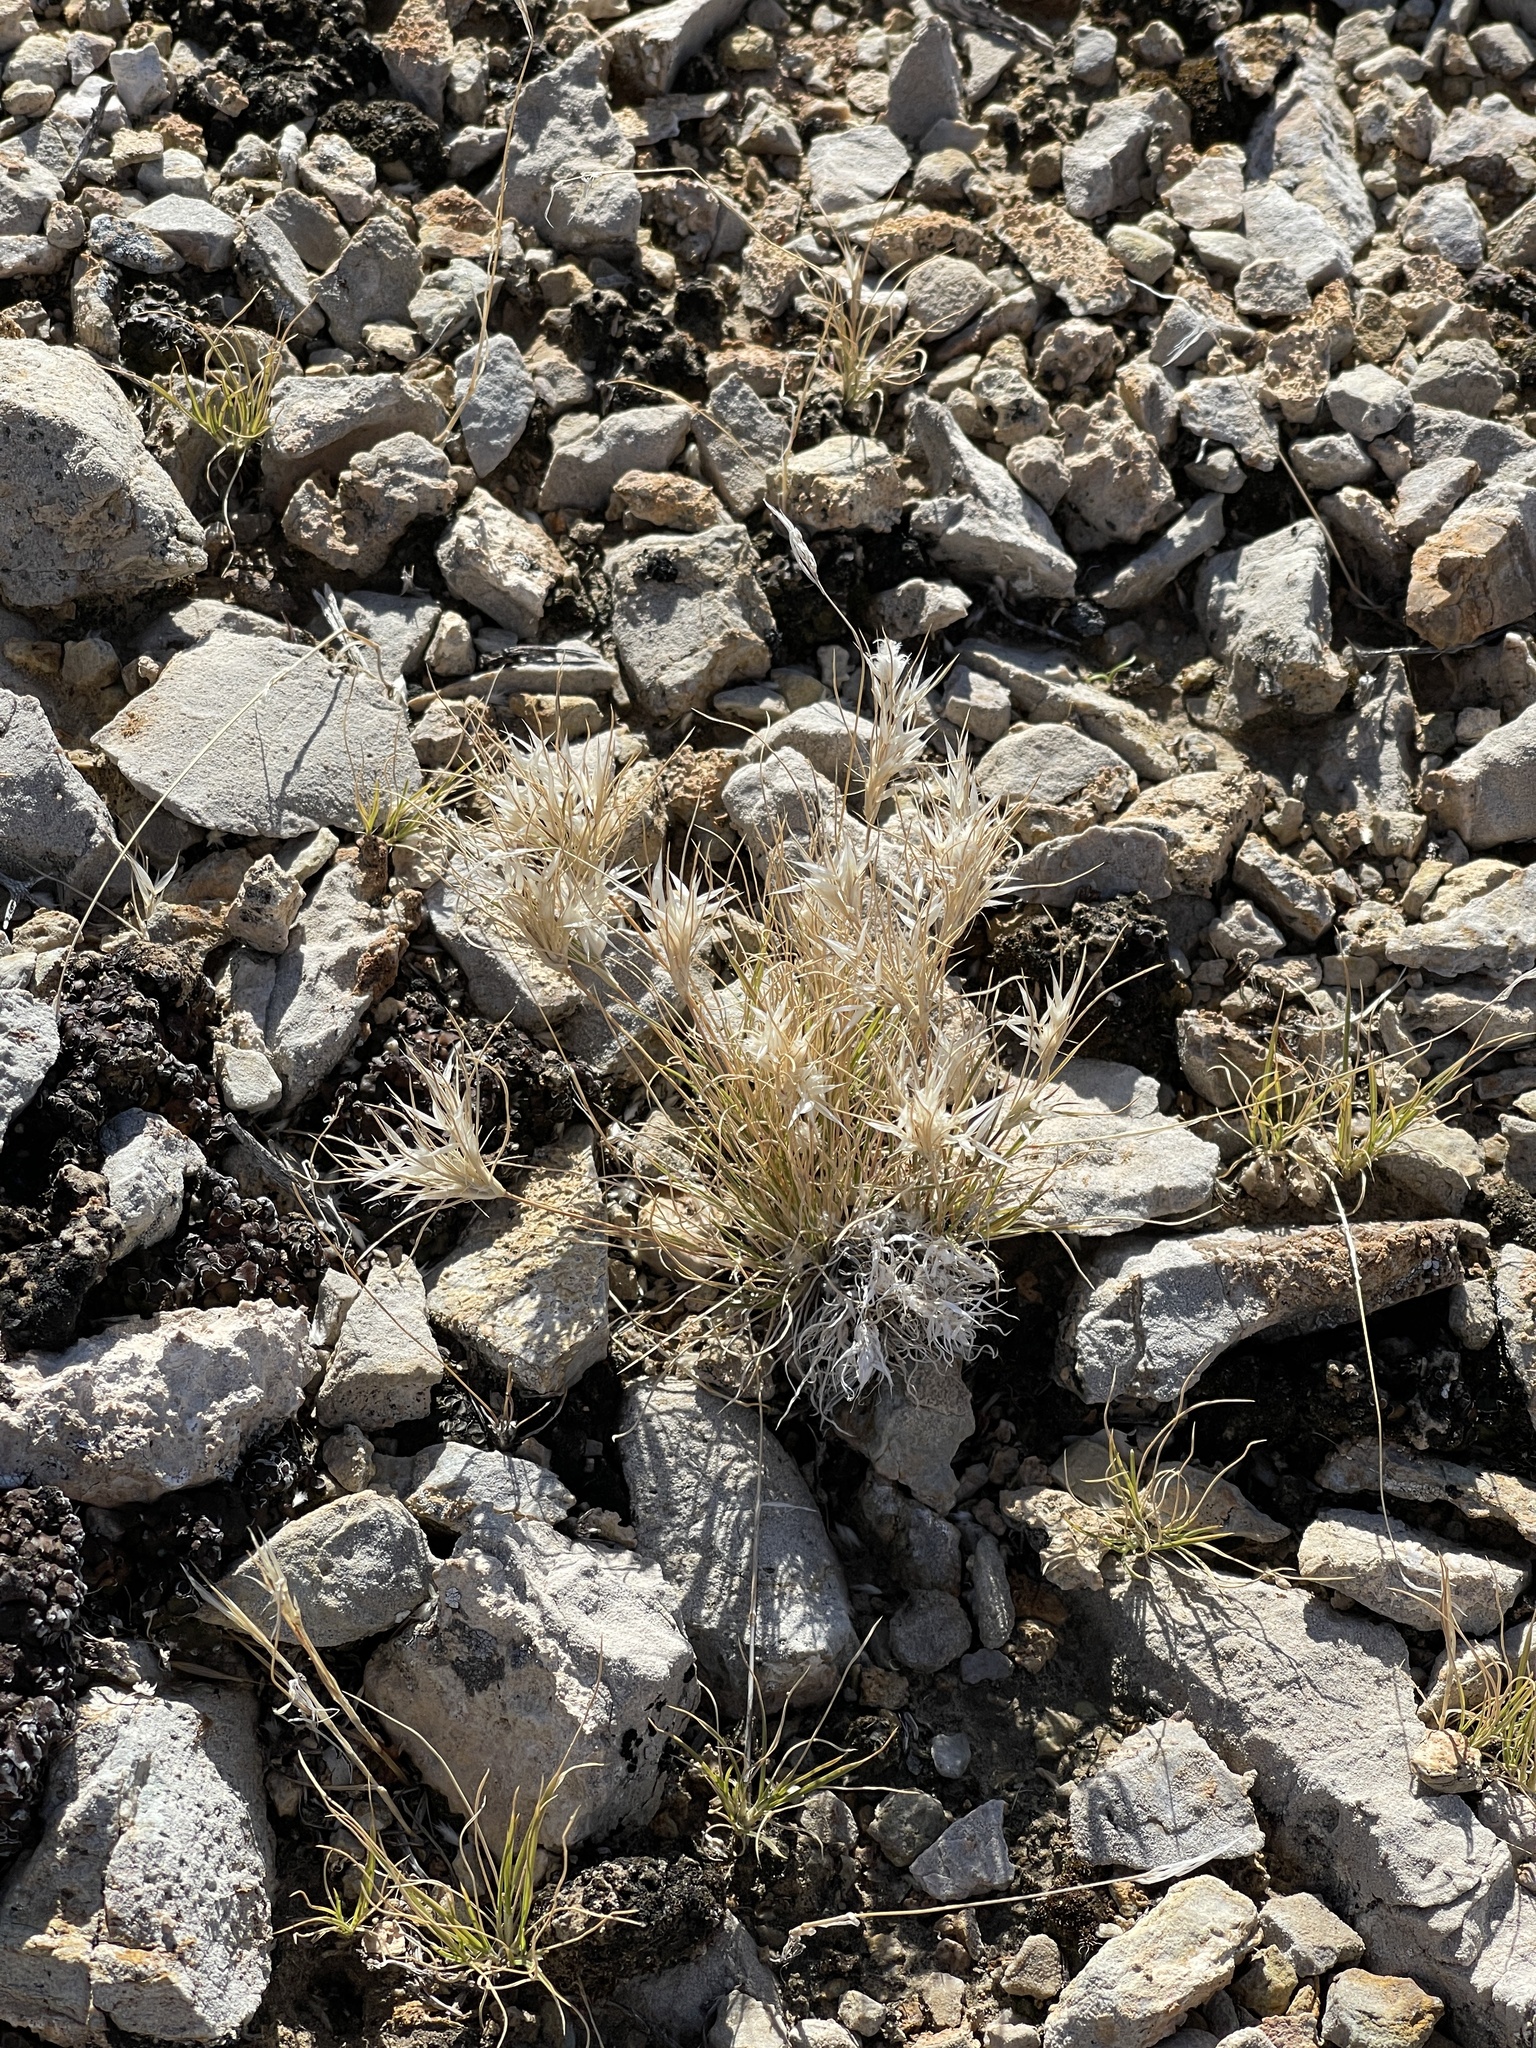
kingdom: Plantae
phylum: Tracheophyta
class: Liliopsida
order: Poales
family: Poaceae
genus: Dasyochloa
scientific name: Dasyochloa pulchella
